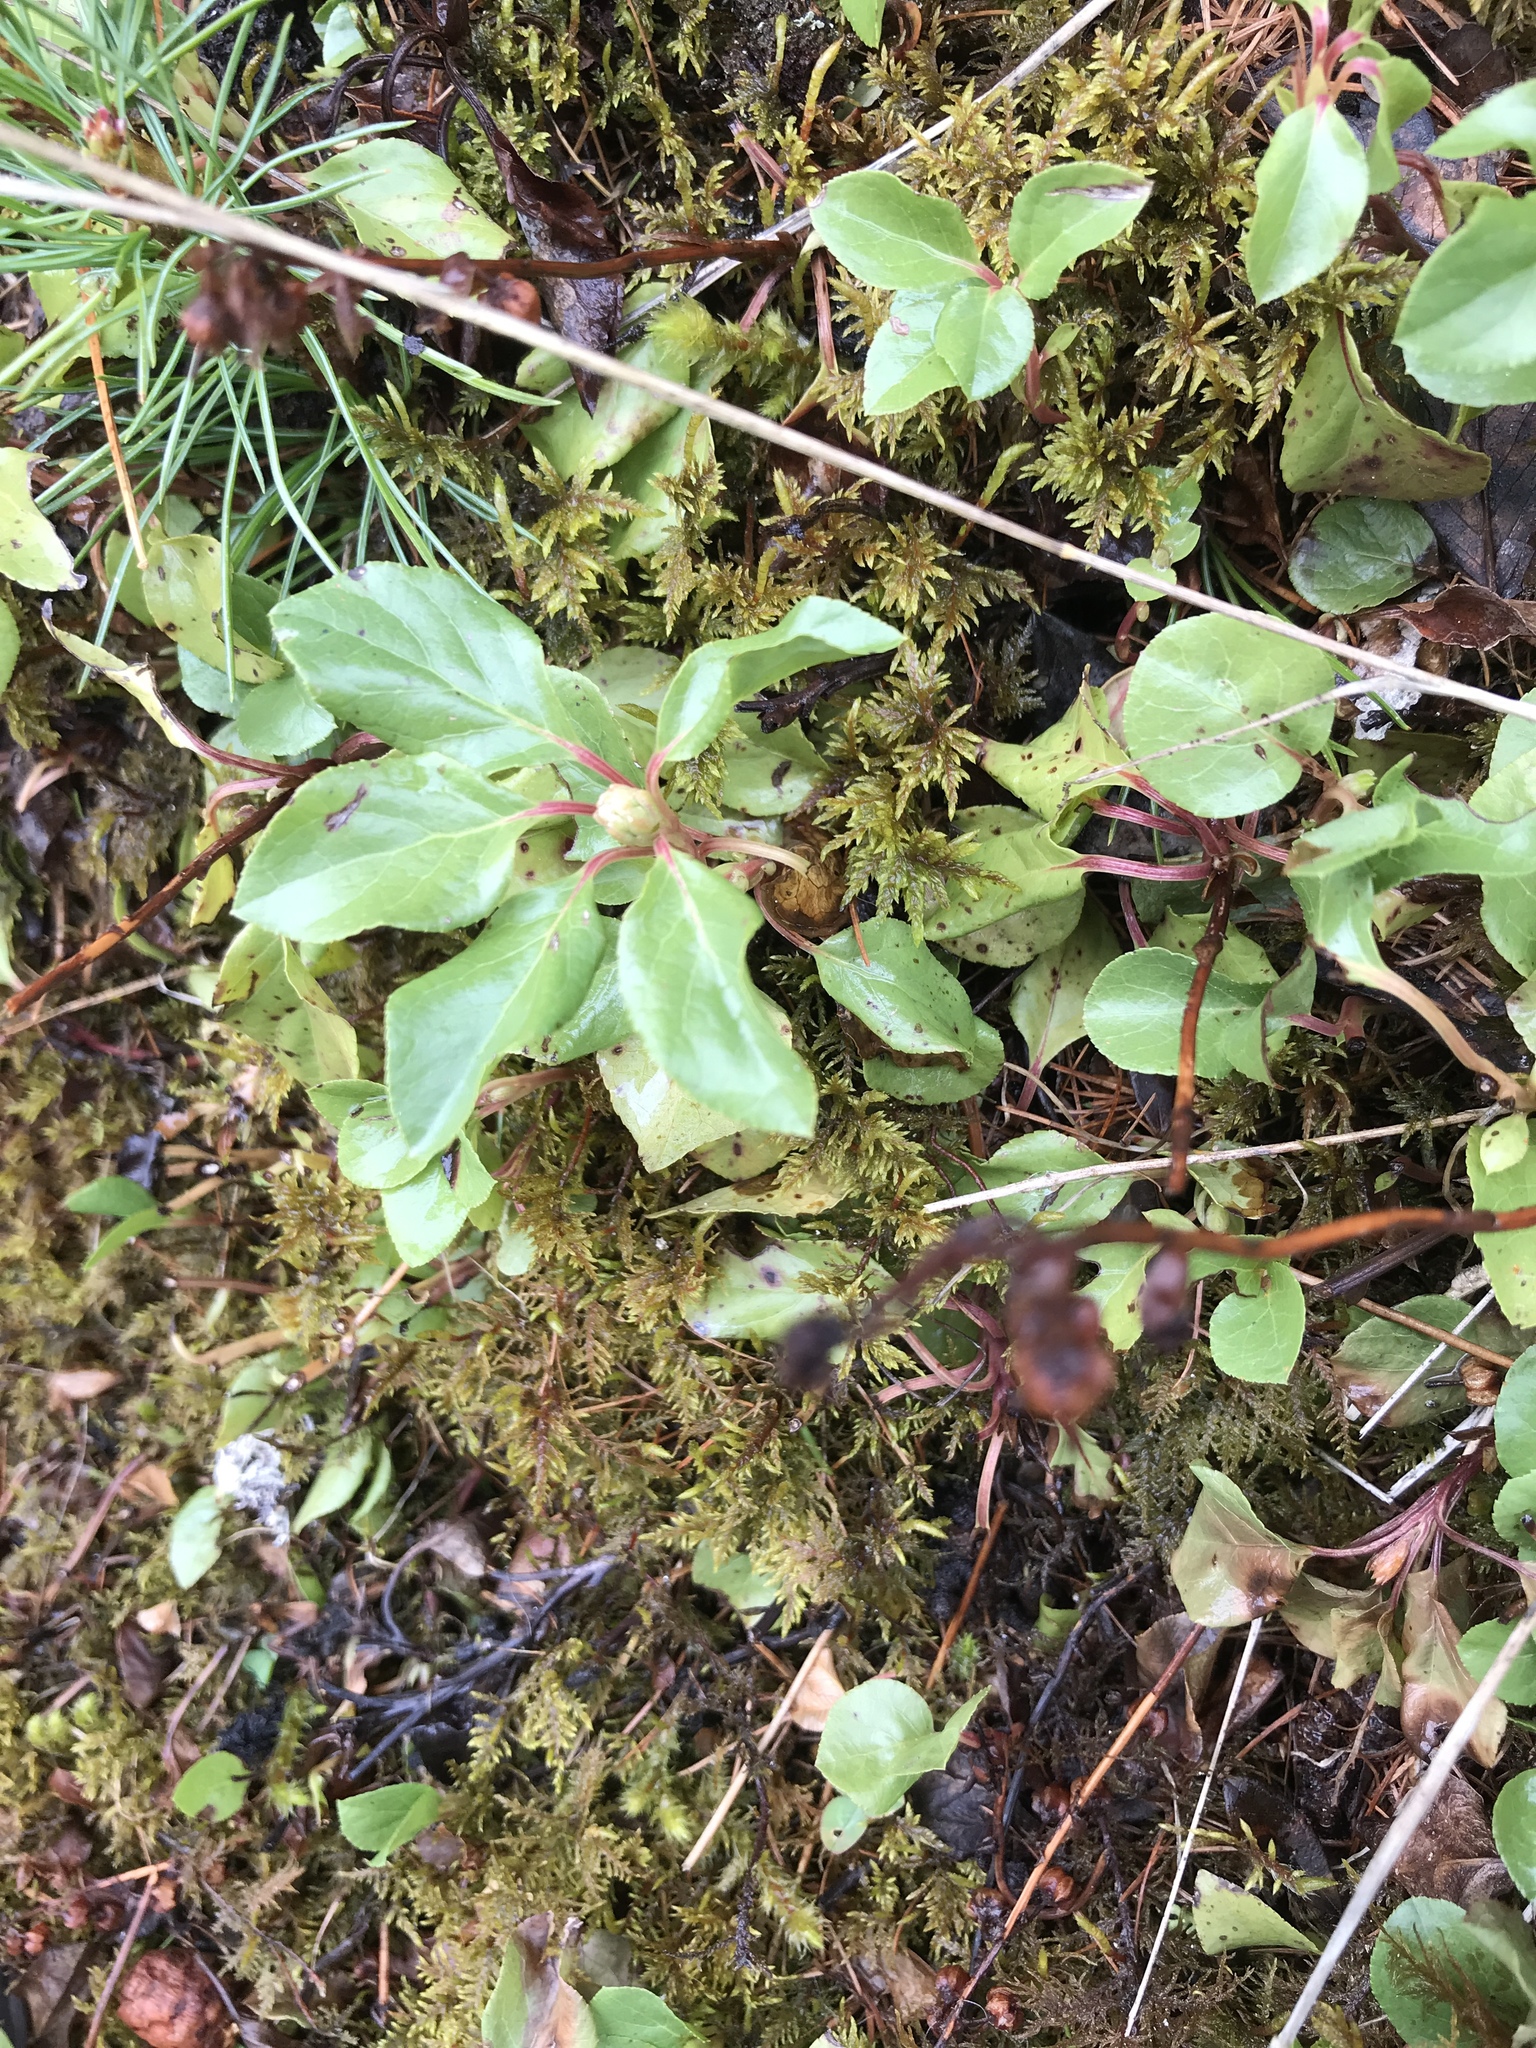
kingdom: Plantae
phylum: Tracheophyta
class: Magnoliopsida
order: Ericales
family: Ericaceae
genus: Orthilia
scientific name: Orthilia secunda
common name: One-sided orthilia
